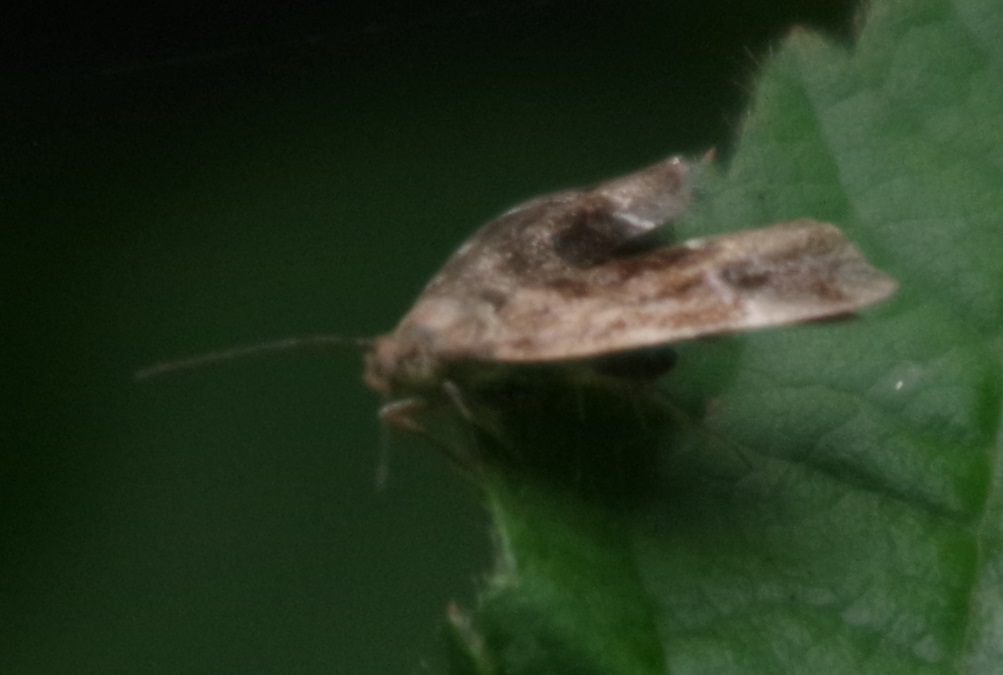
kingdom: Animalia
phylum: Arthropoda
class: Insecta
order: Lepidoptera
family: Choreutidae
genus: Anthophila
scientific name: Anthophila fabriciana
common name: Nettle-tap
